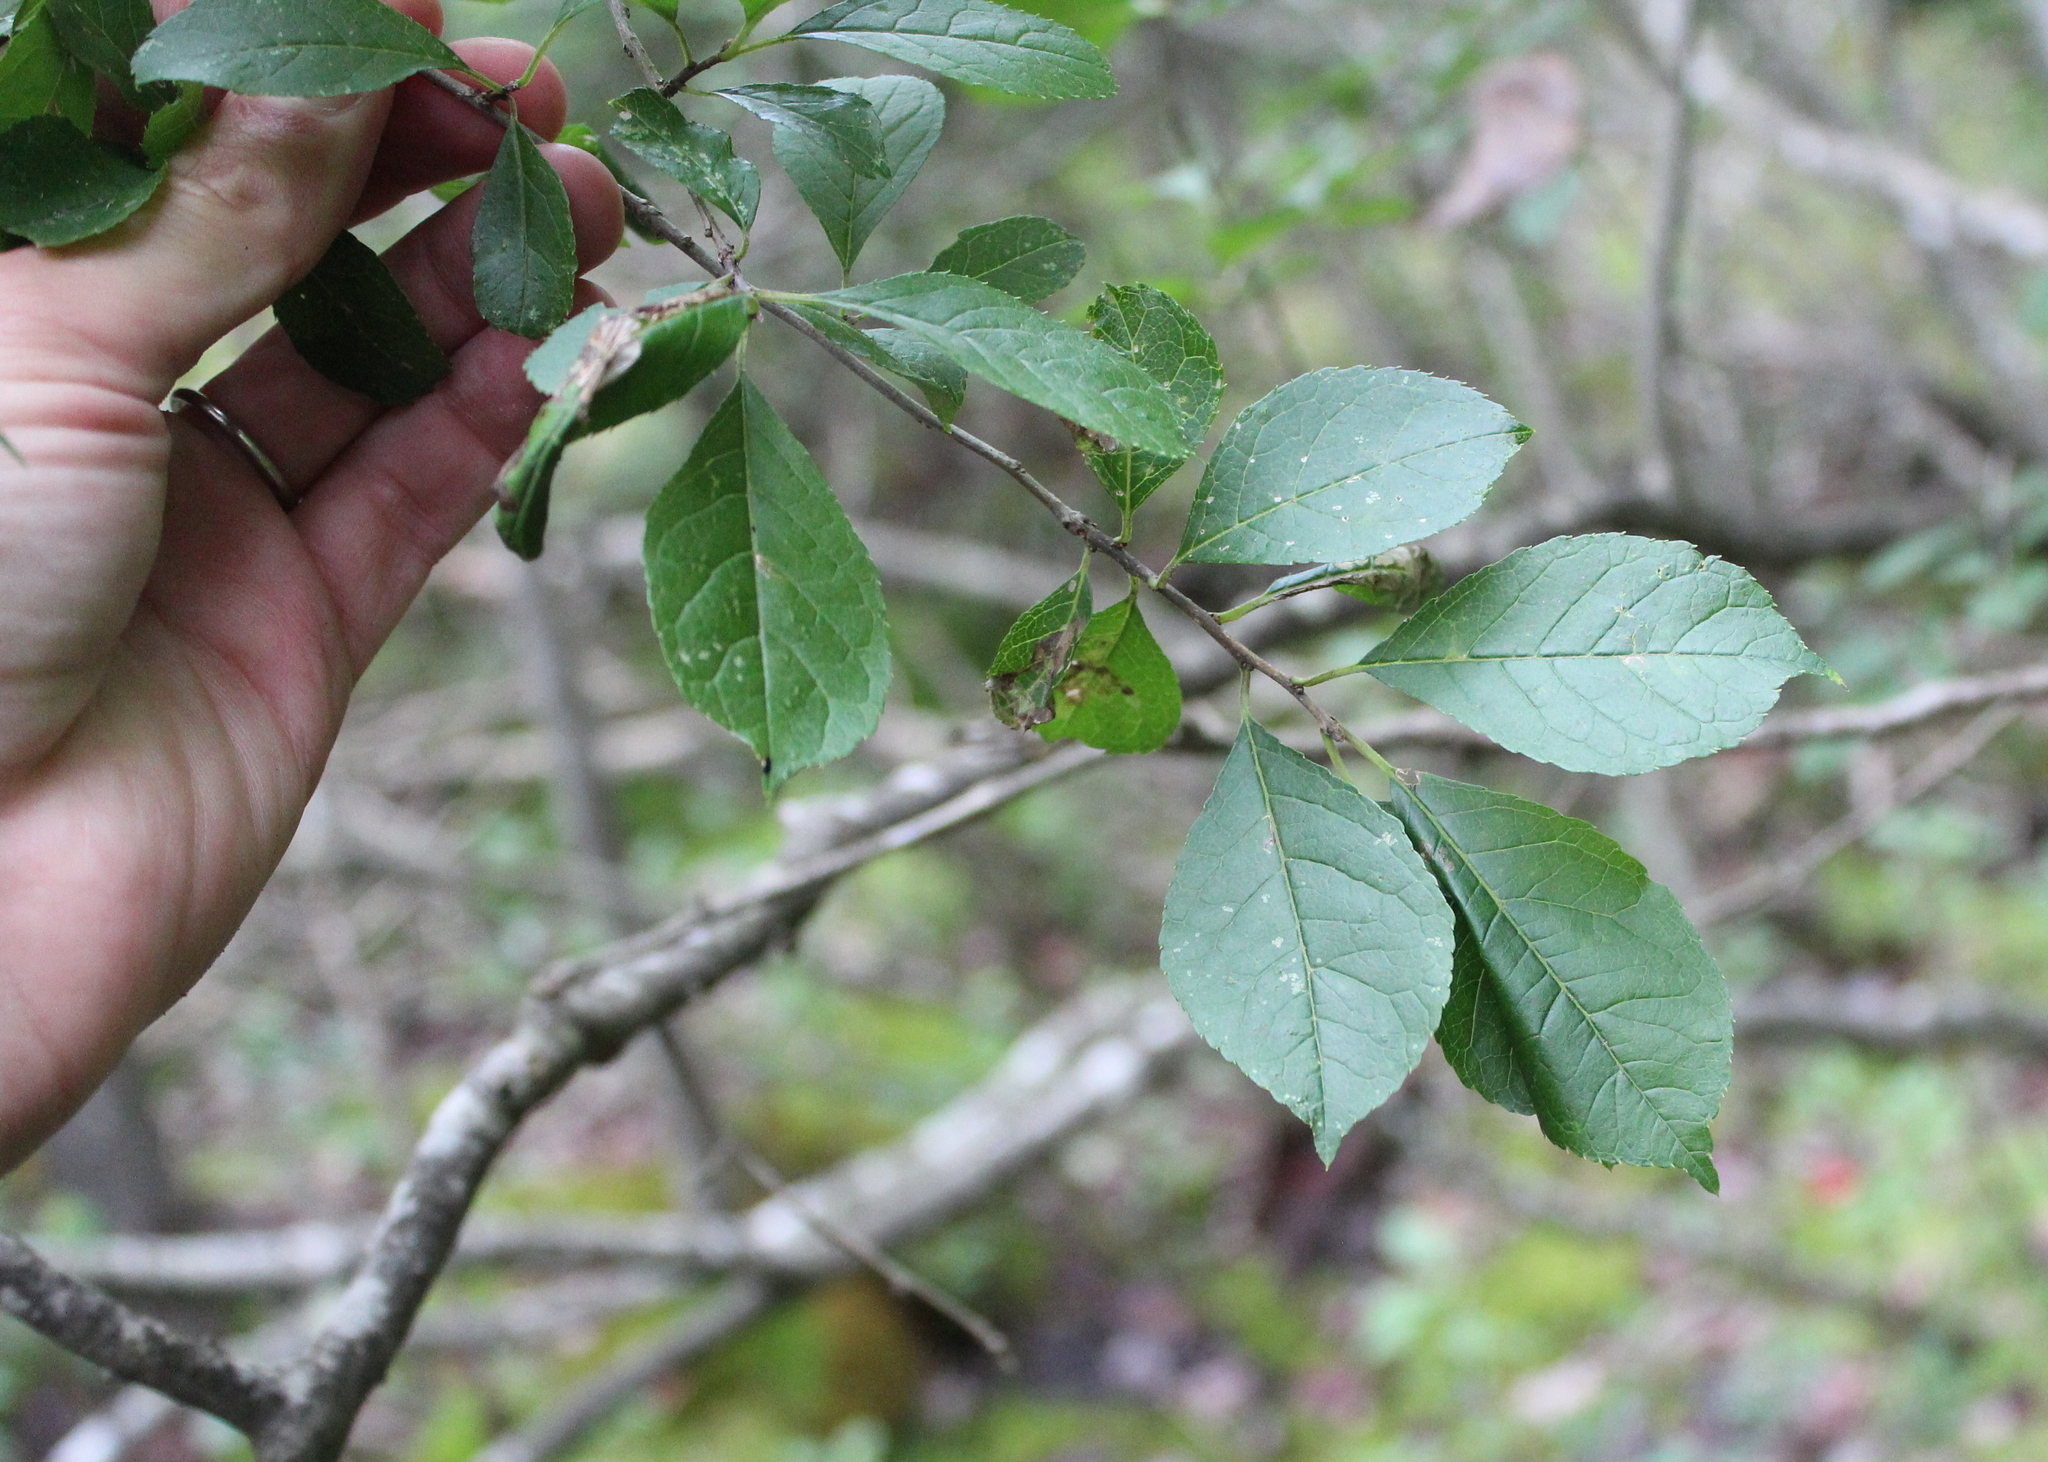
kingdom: Plantae
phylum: Tracheophyta
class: Magnoliopsida
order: Aquifoliales
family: Aquifoliaceae
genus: Ilex
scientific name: Ilex verticillata
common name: Virginia winterberry
